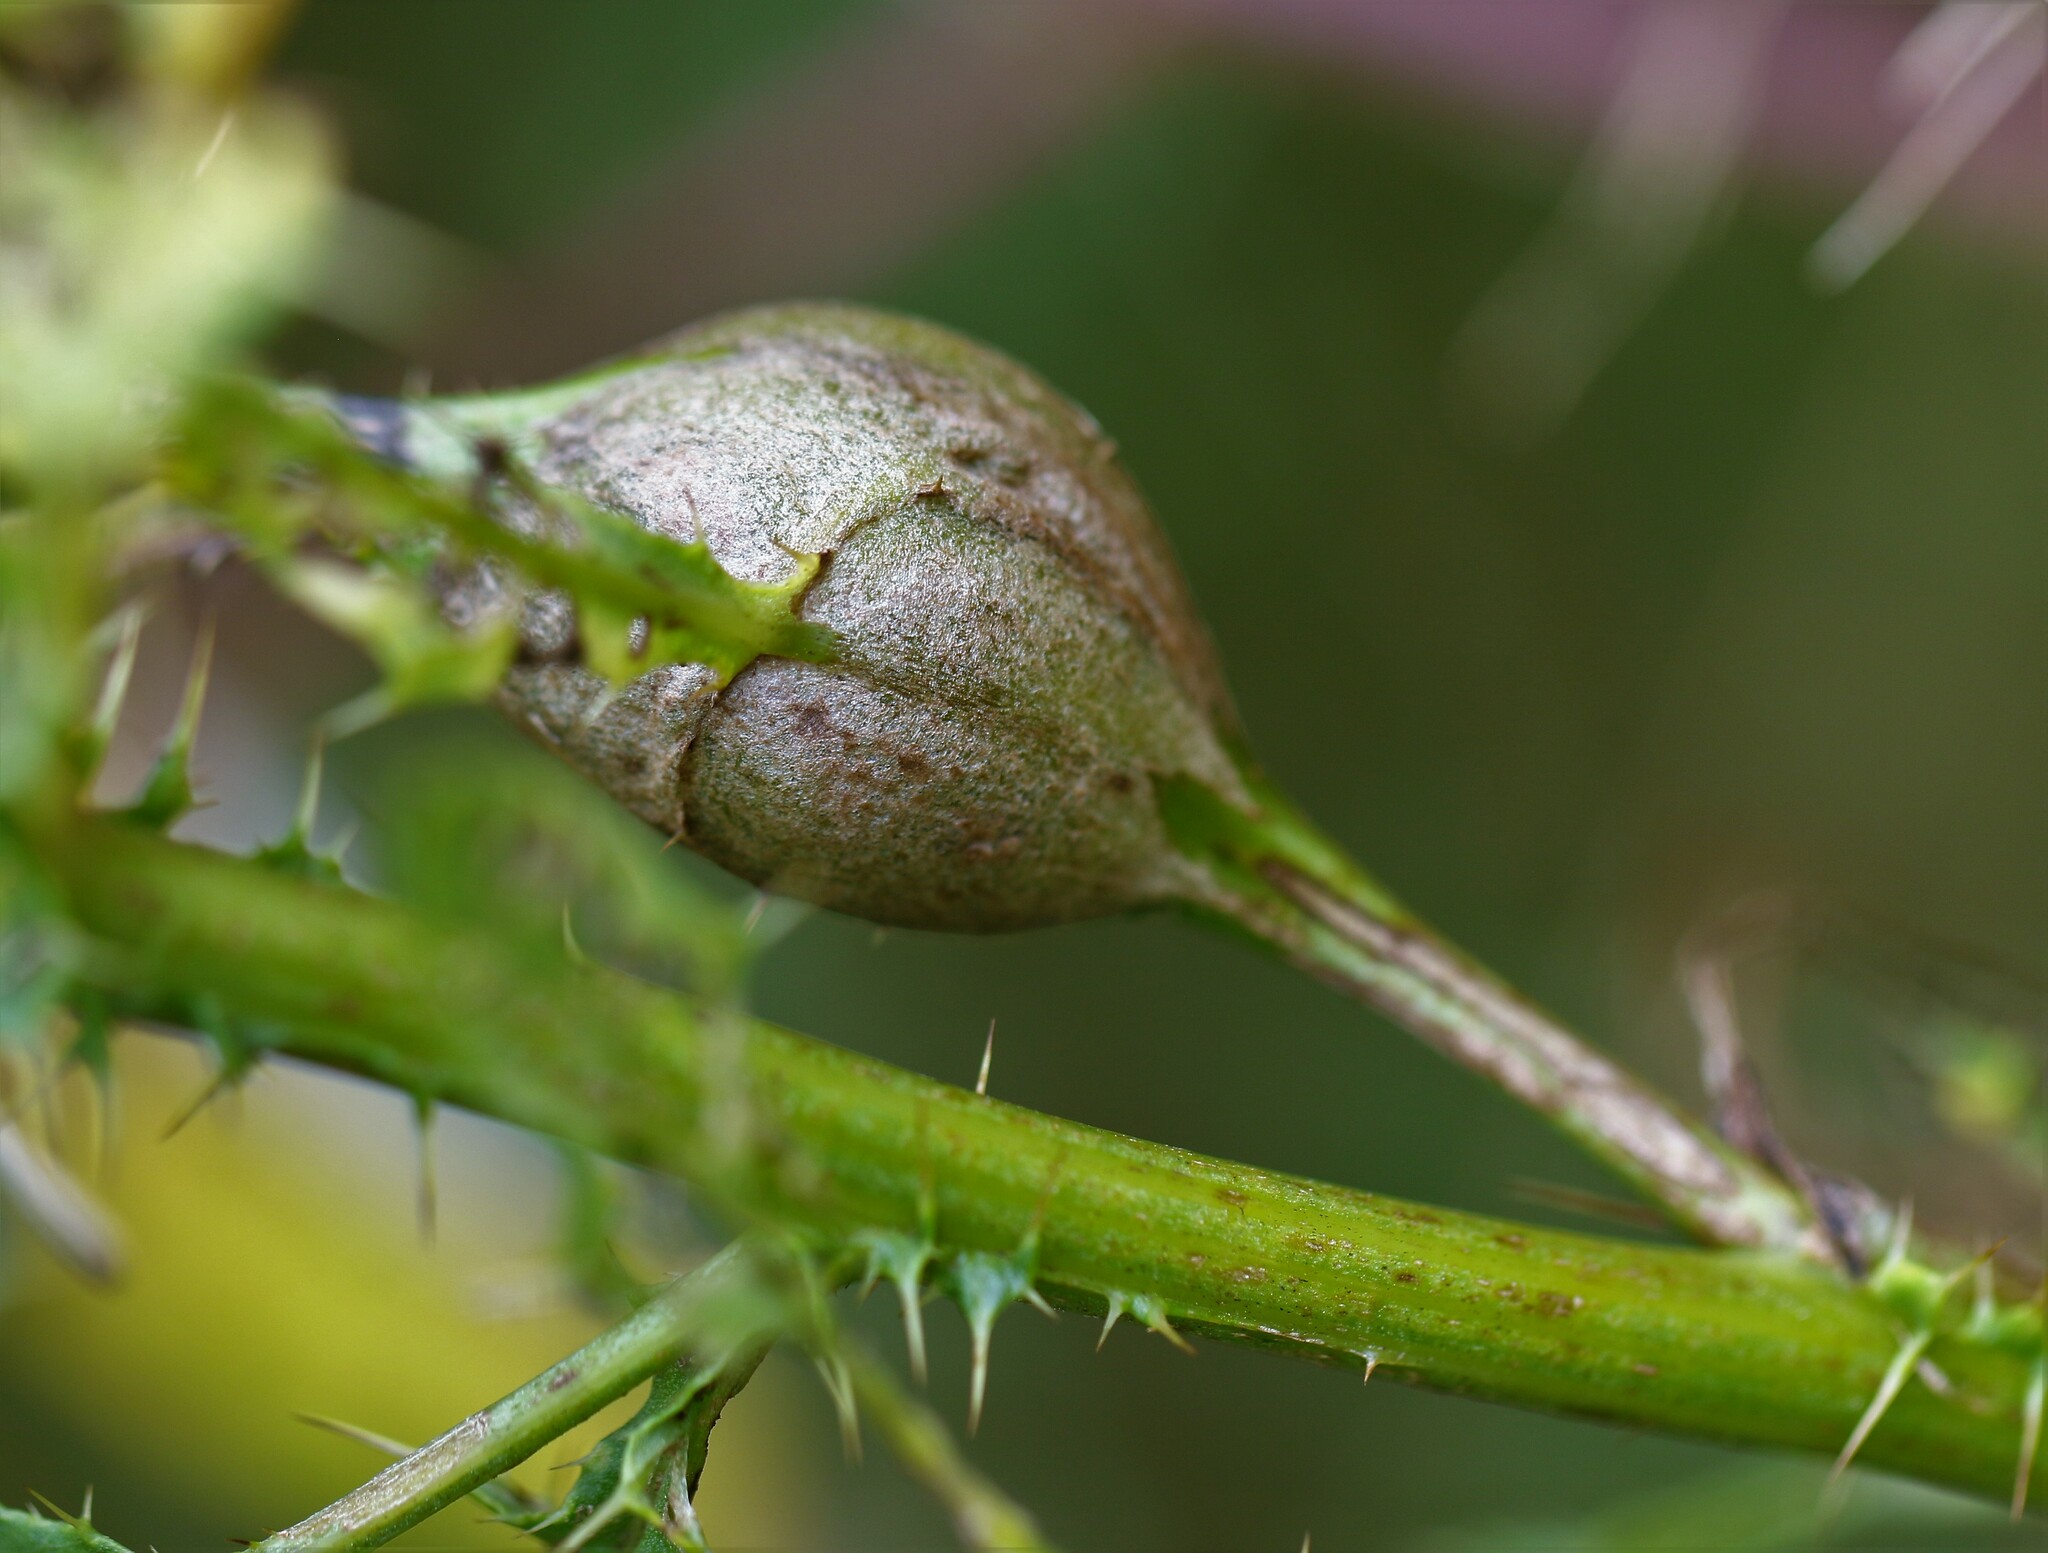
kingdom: Animalia
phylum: Arthropoda
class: Insecta
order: Diptera
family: Tephritidae
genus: Eurosta
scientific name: Eurosta solidaginis
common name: Goldenrod gall fly
